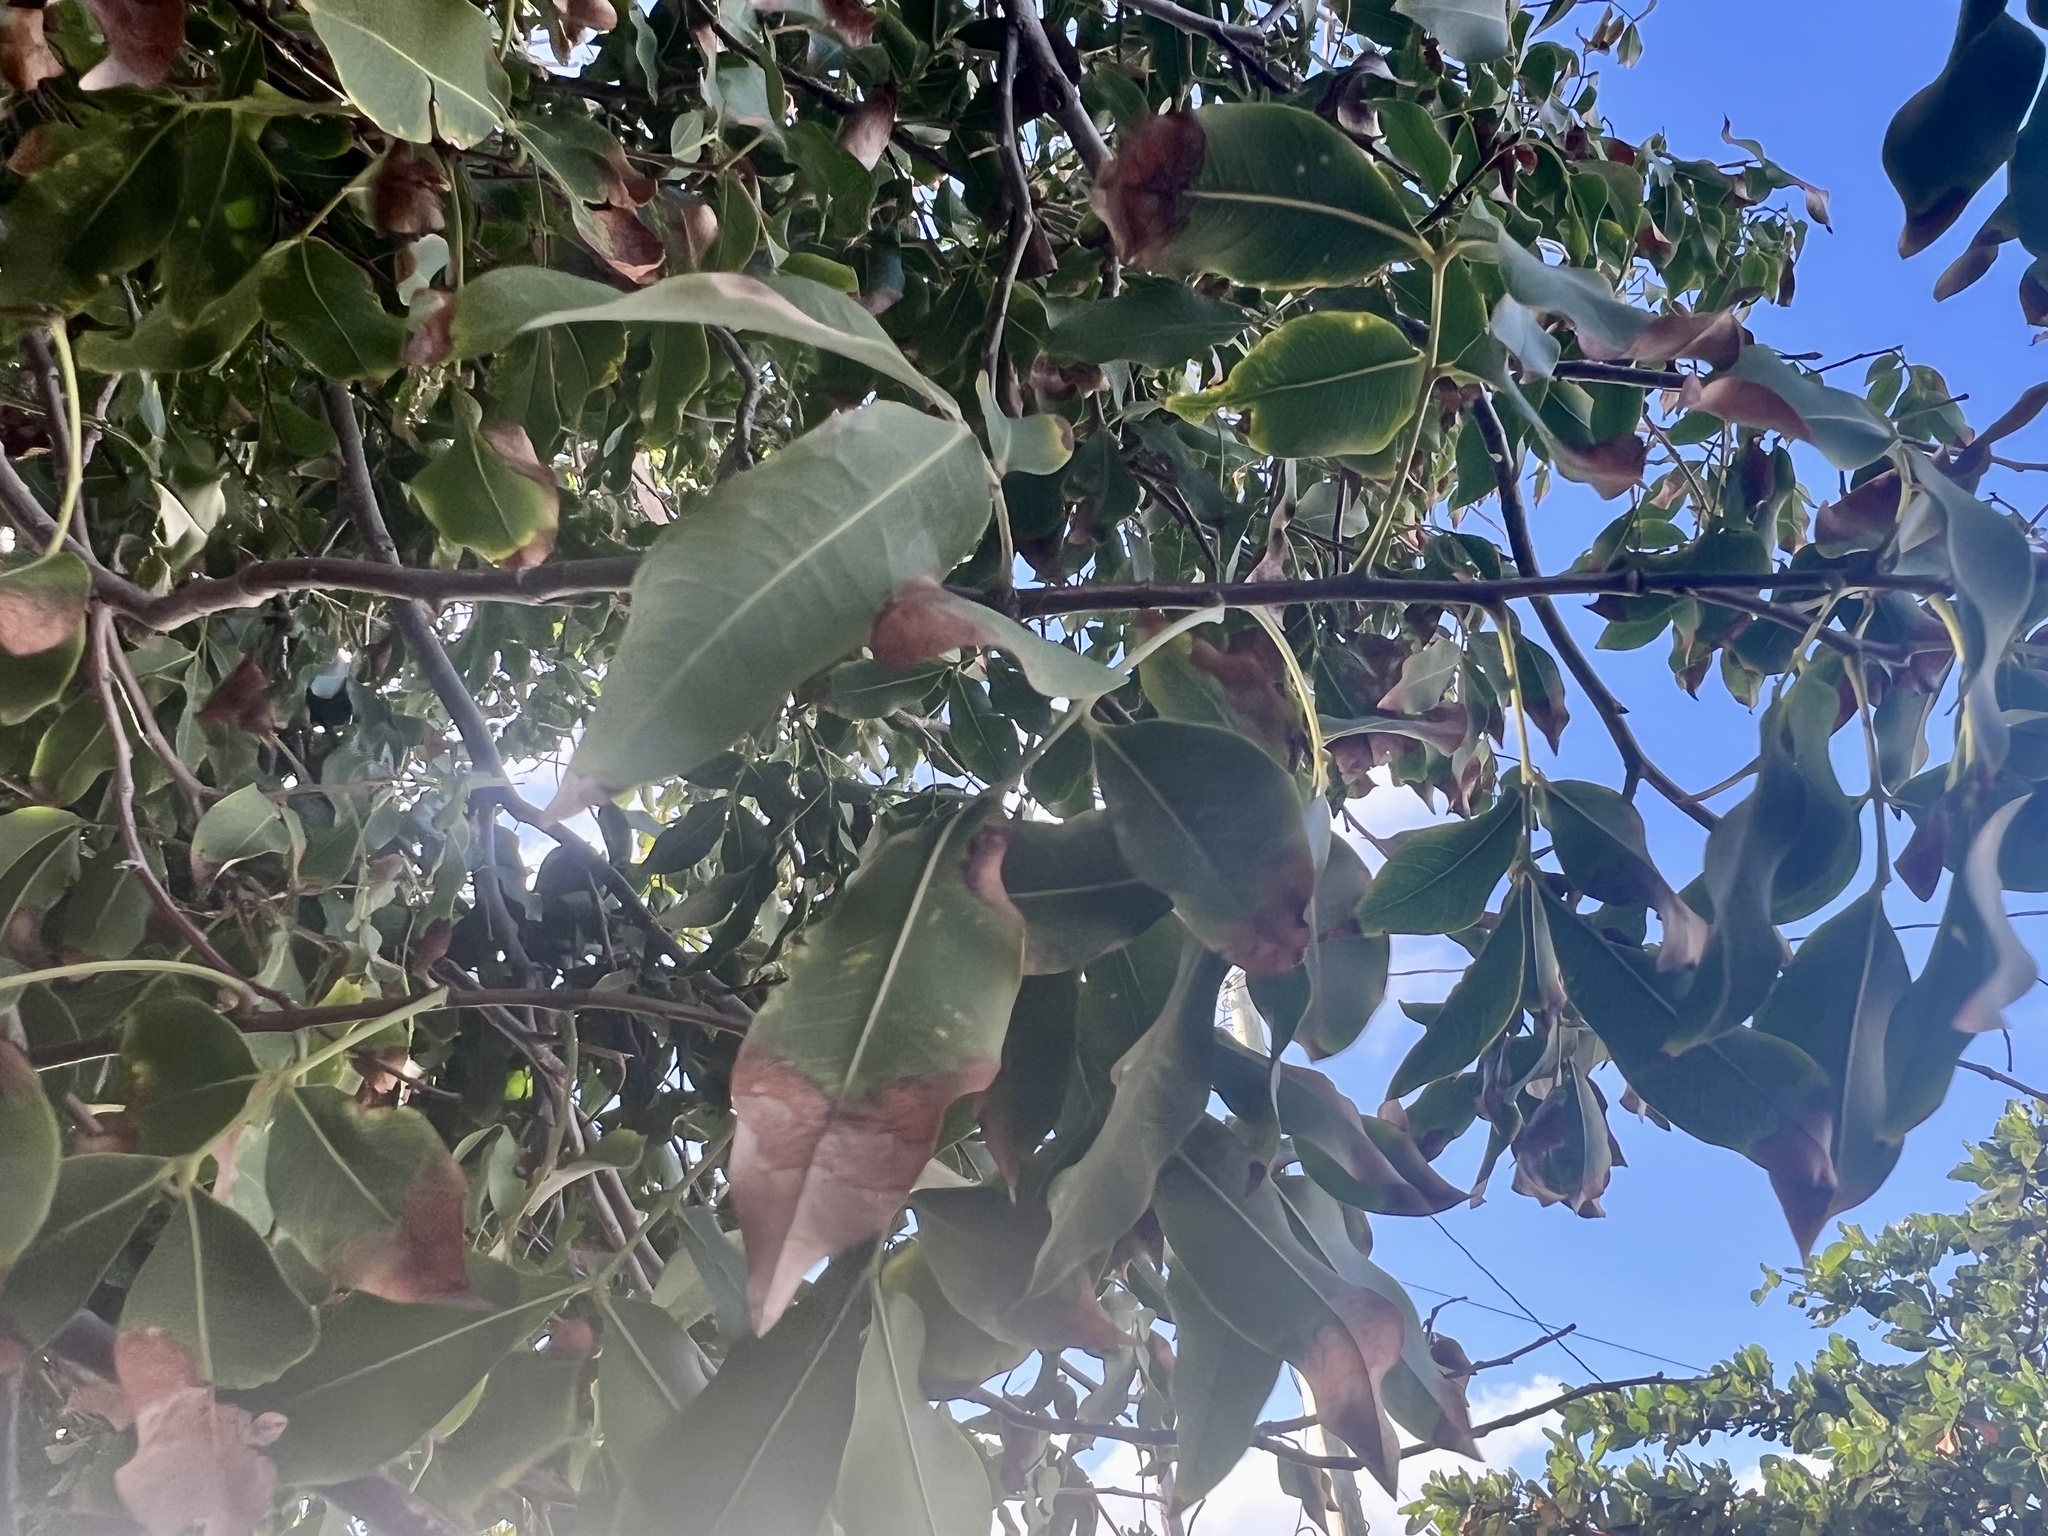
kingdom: Plantae
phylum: Tracheophyta
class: Magnoliopsida
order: Sapindales
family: Sapindaceae
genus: Melicoccus
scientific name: Melicoccus bijugatus
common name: Spanish lime
